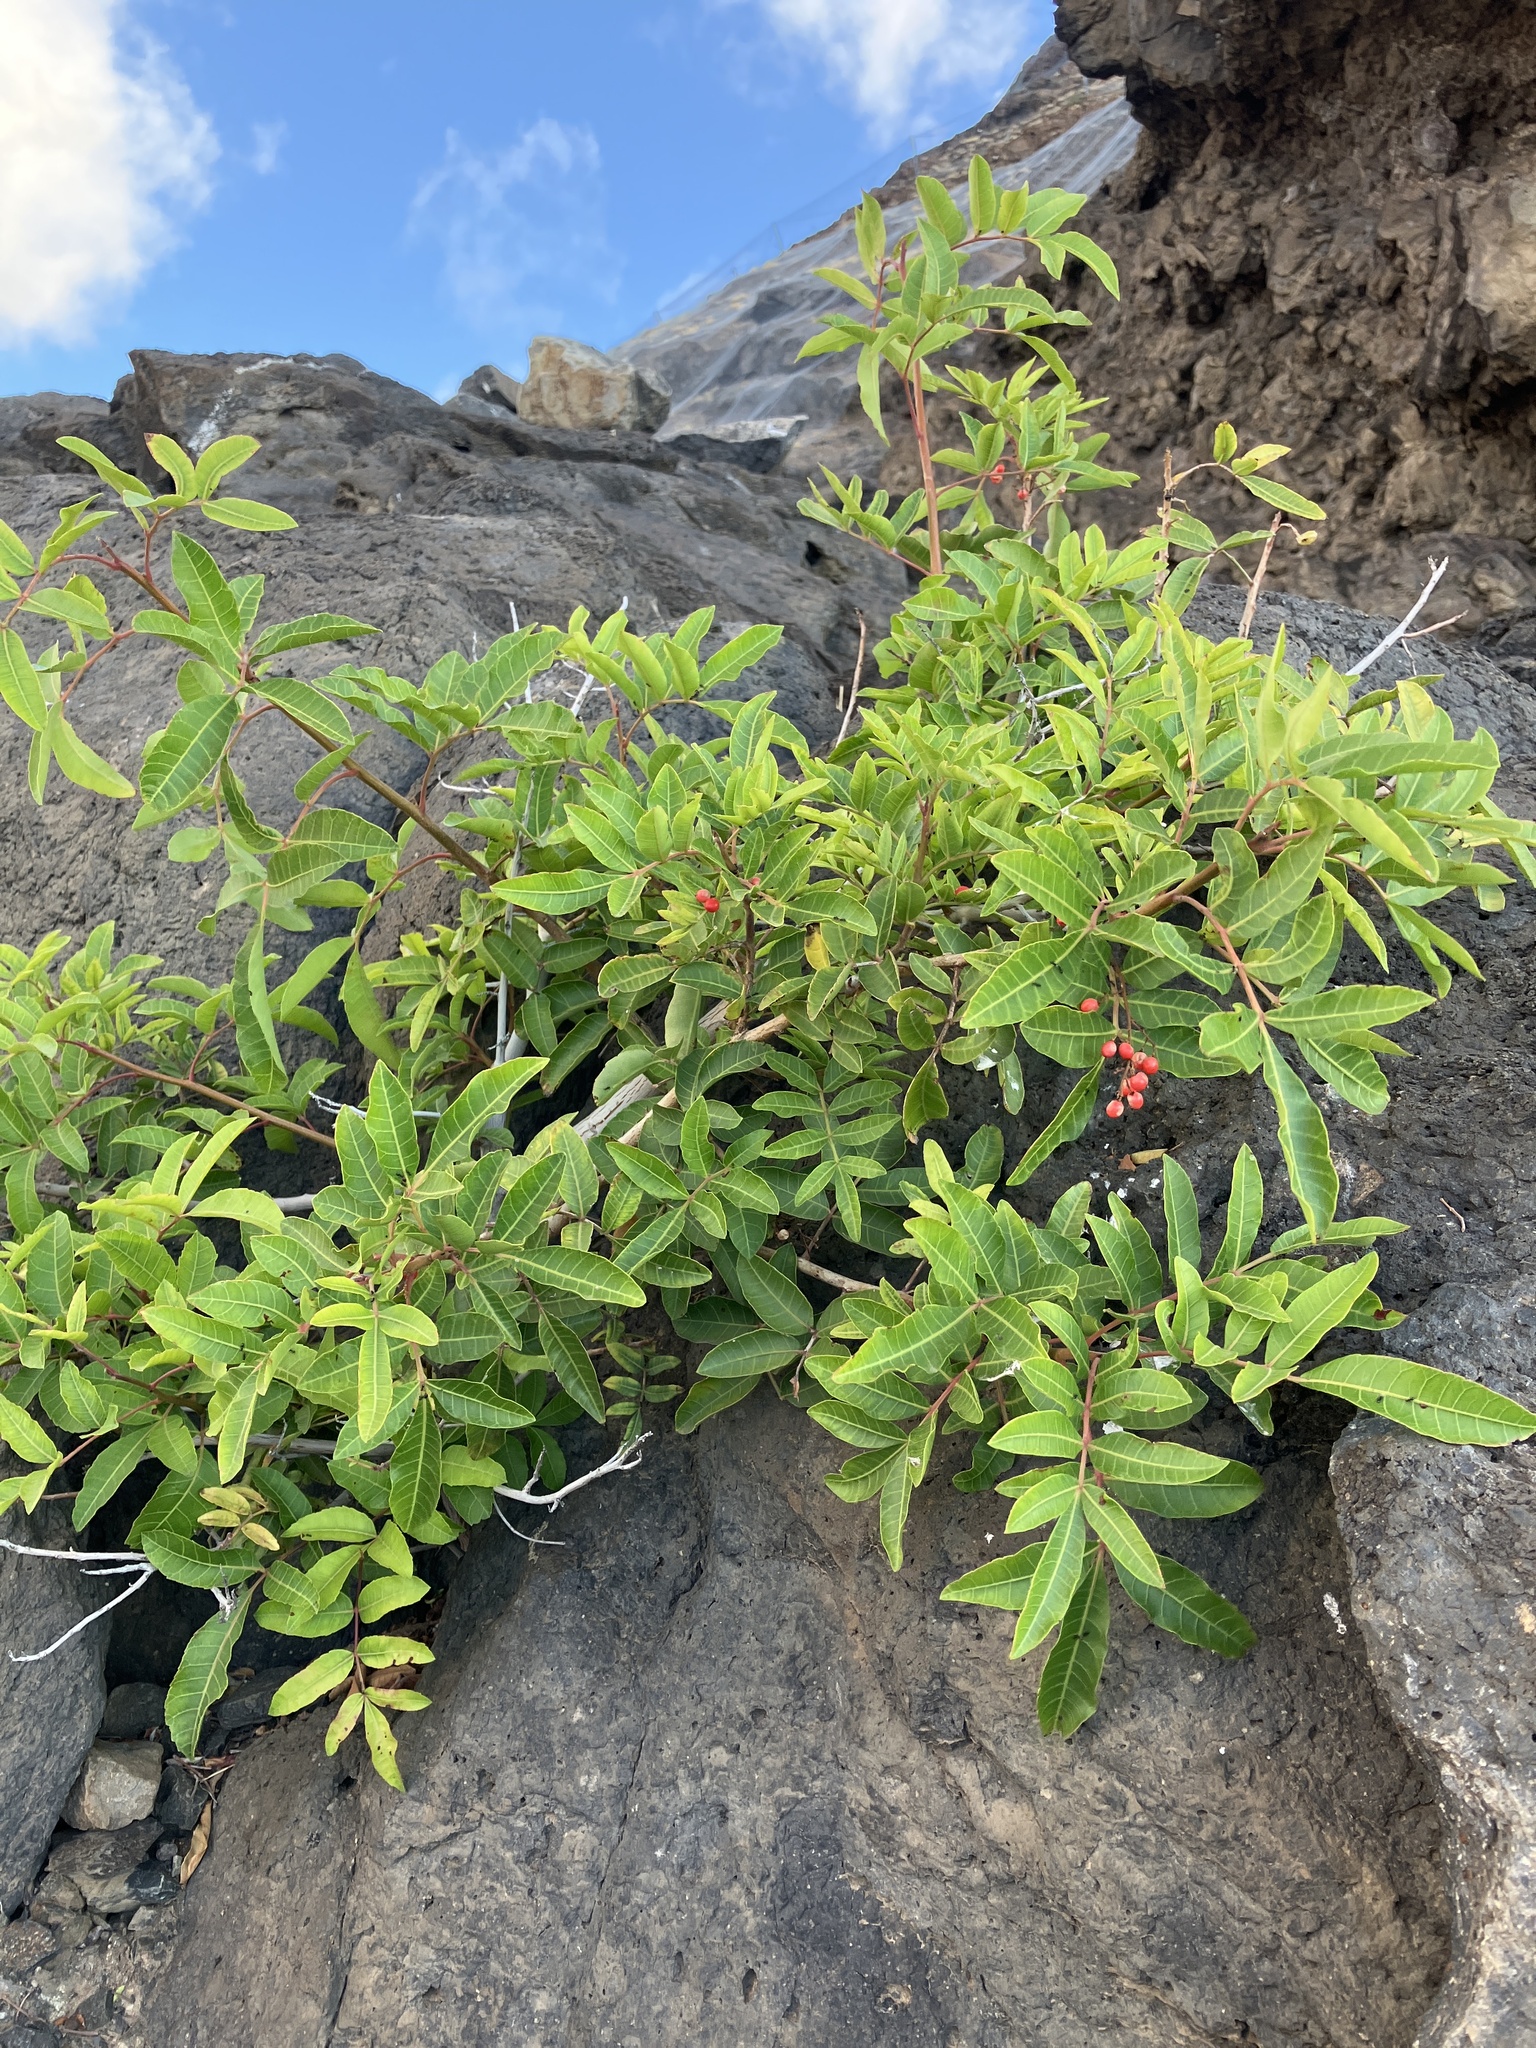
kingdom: Plantae
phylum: Tracheophyta
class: Magnoliopsida
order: Sapindales
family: Anacardiaceae
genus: Schinus
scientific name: Schinus terebinthifolia
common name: Brazilian peppertree
